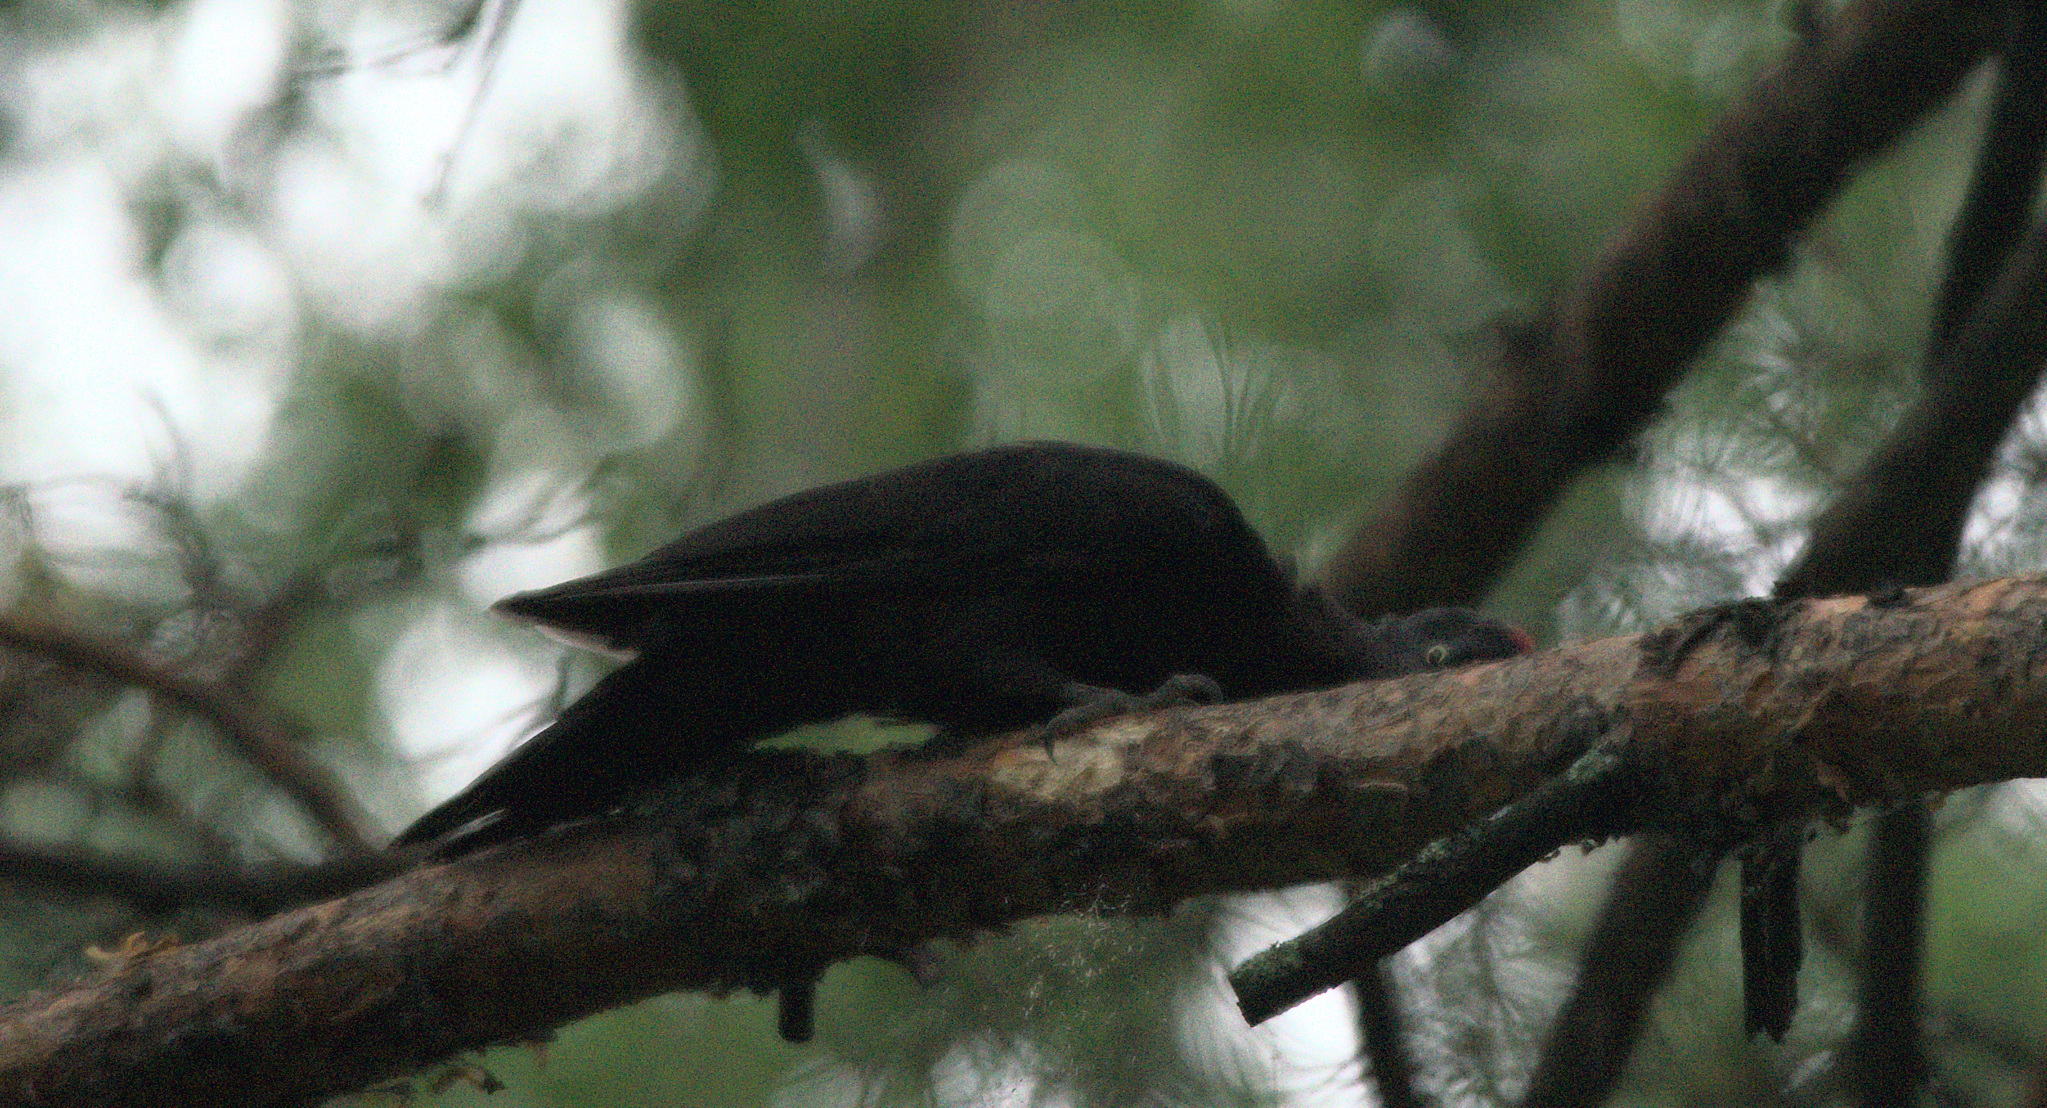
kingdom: Animalia
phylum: Chordata
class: Aves
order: Piciformes
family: Picidae
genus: Dryocopus
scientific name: Dryocopus martius
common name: Black woodpecker
